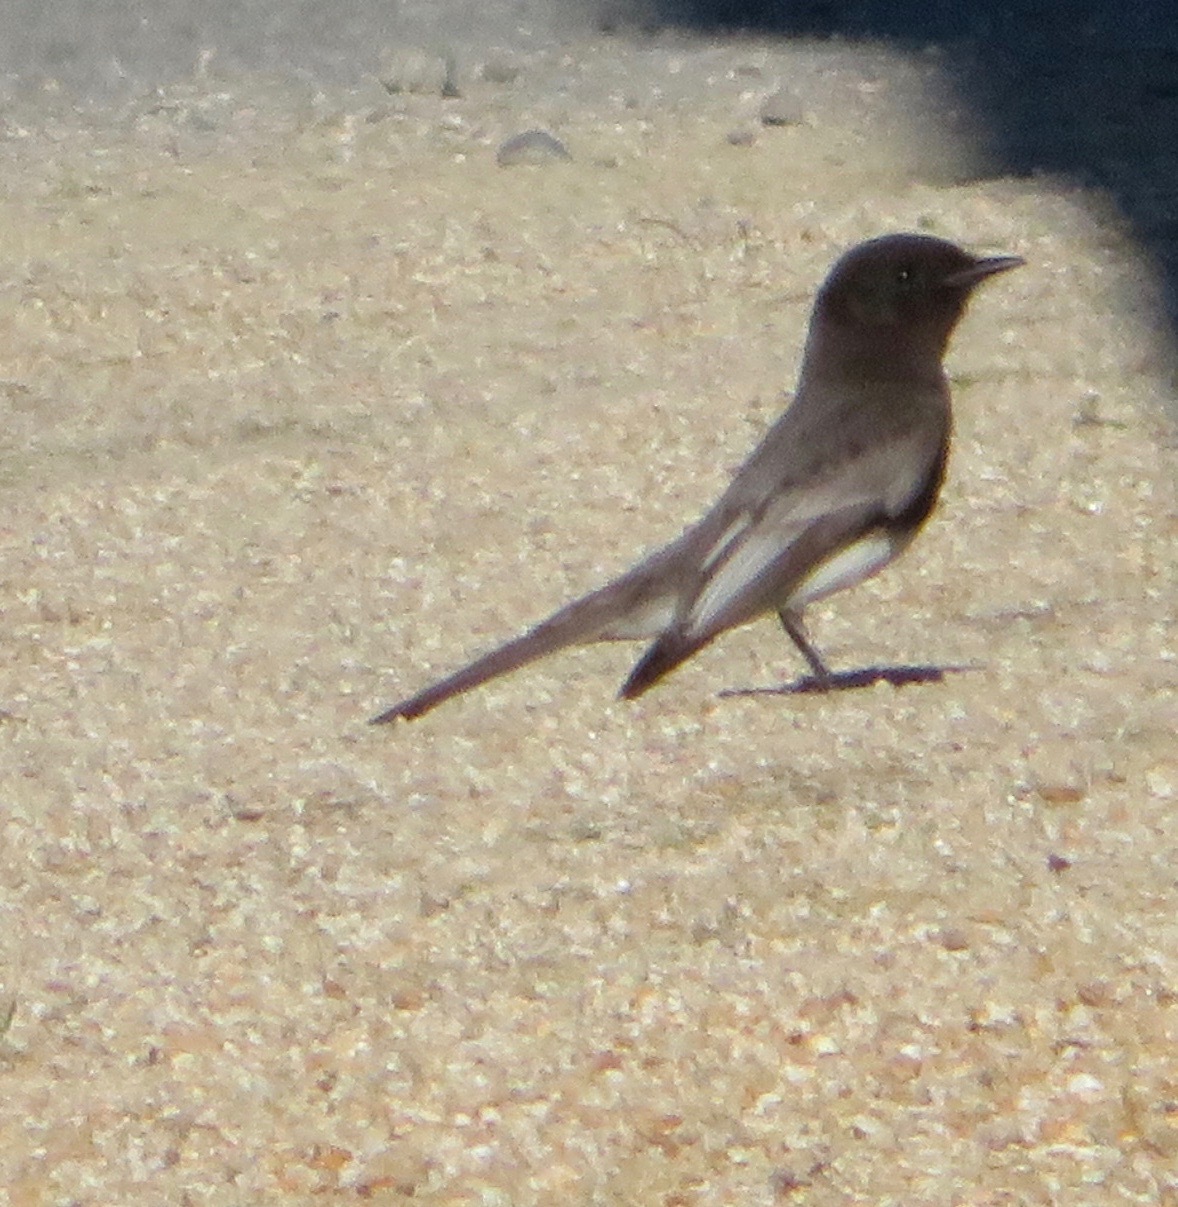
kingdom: Animalia
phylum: Chordata
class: Aves
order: Passeriformes
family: Tyrannidae
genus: Sayornis
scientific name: Sayornis nigricans
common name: Black phoebe
